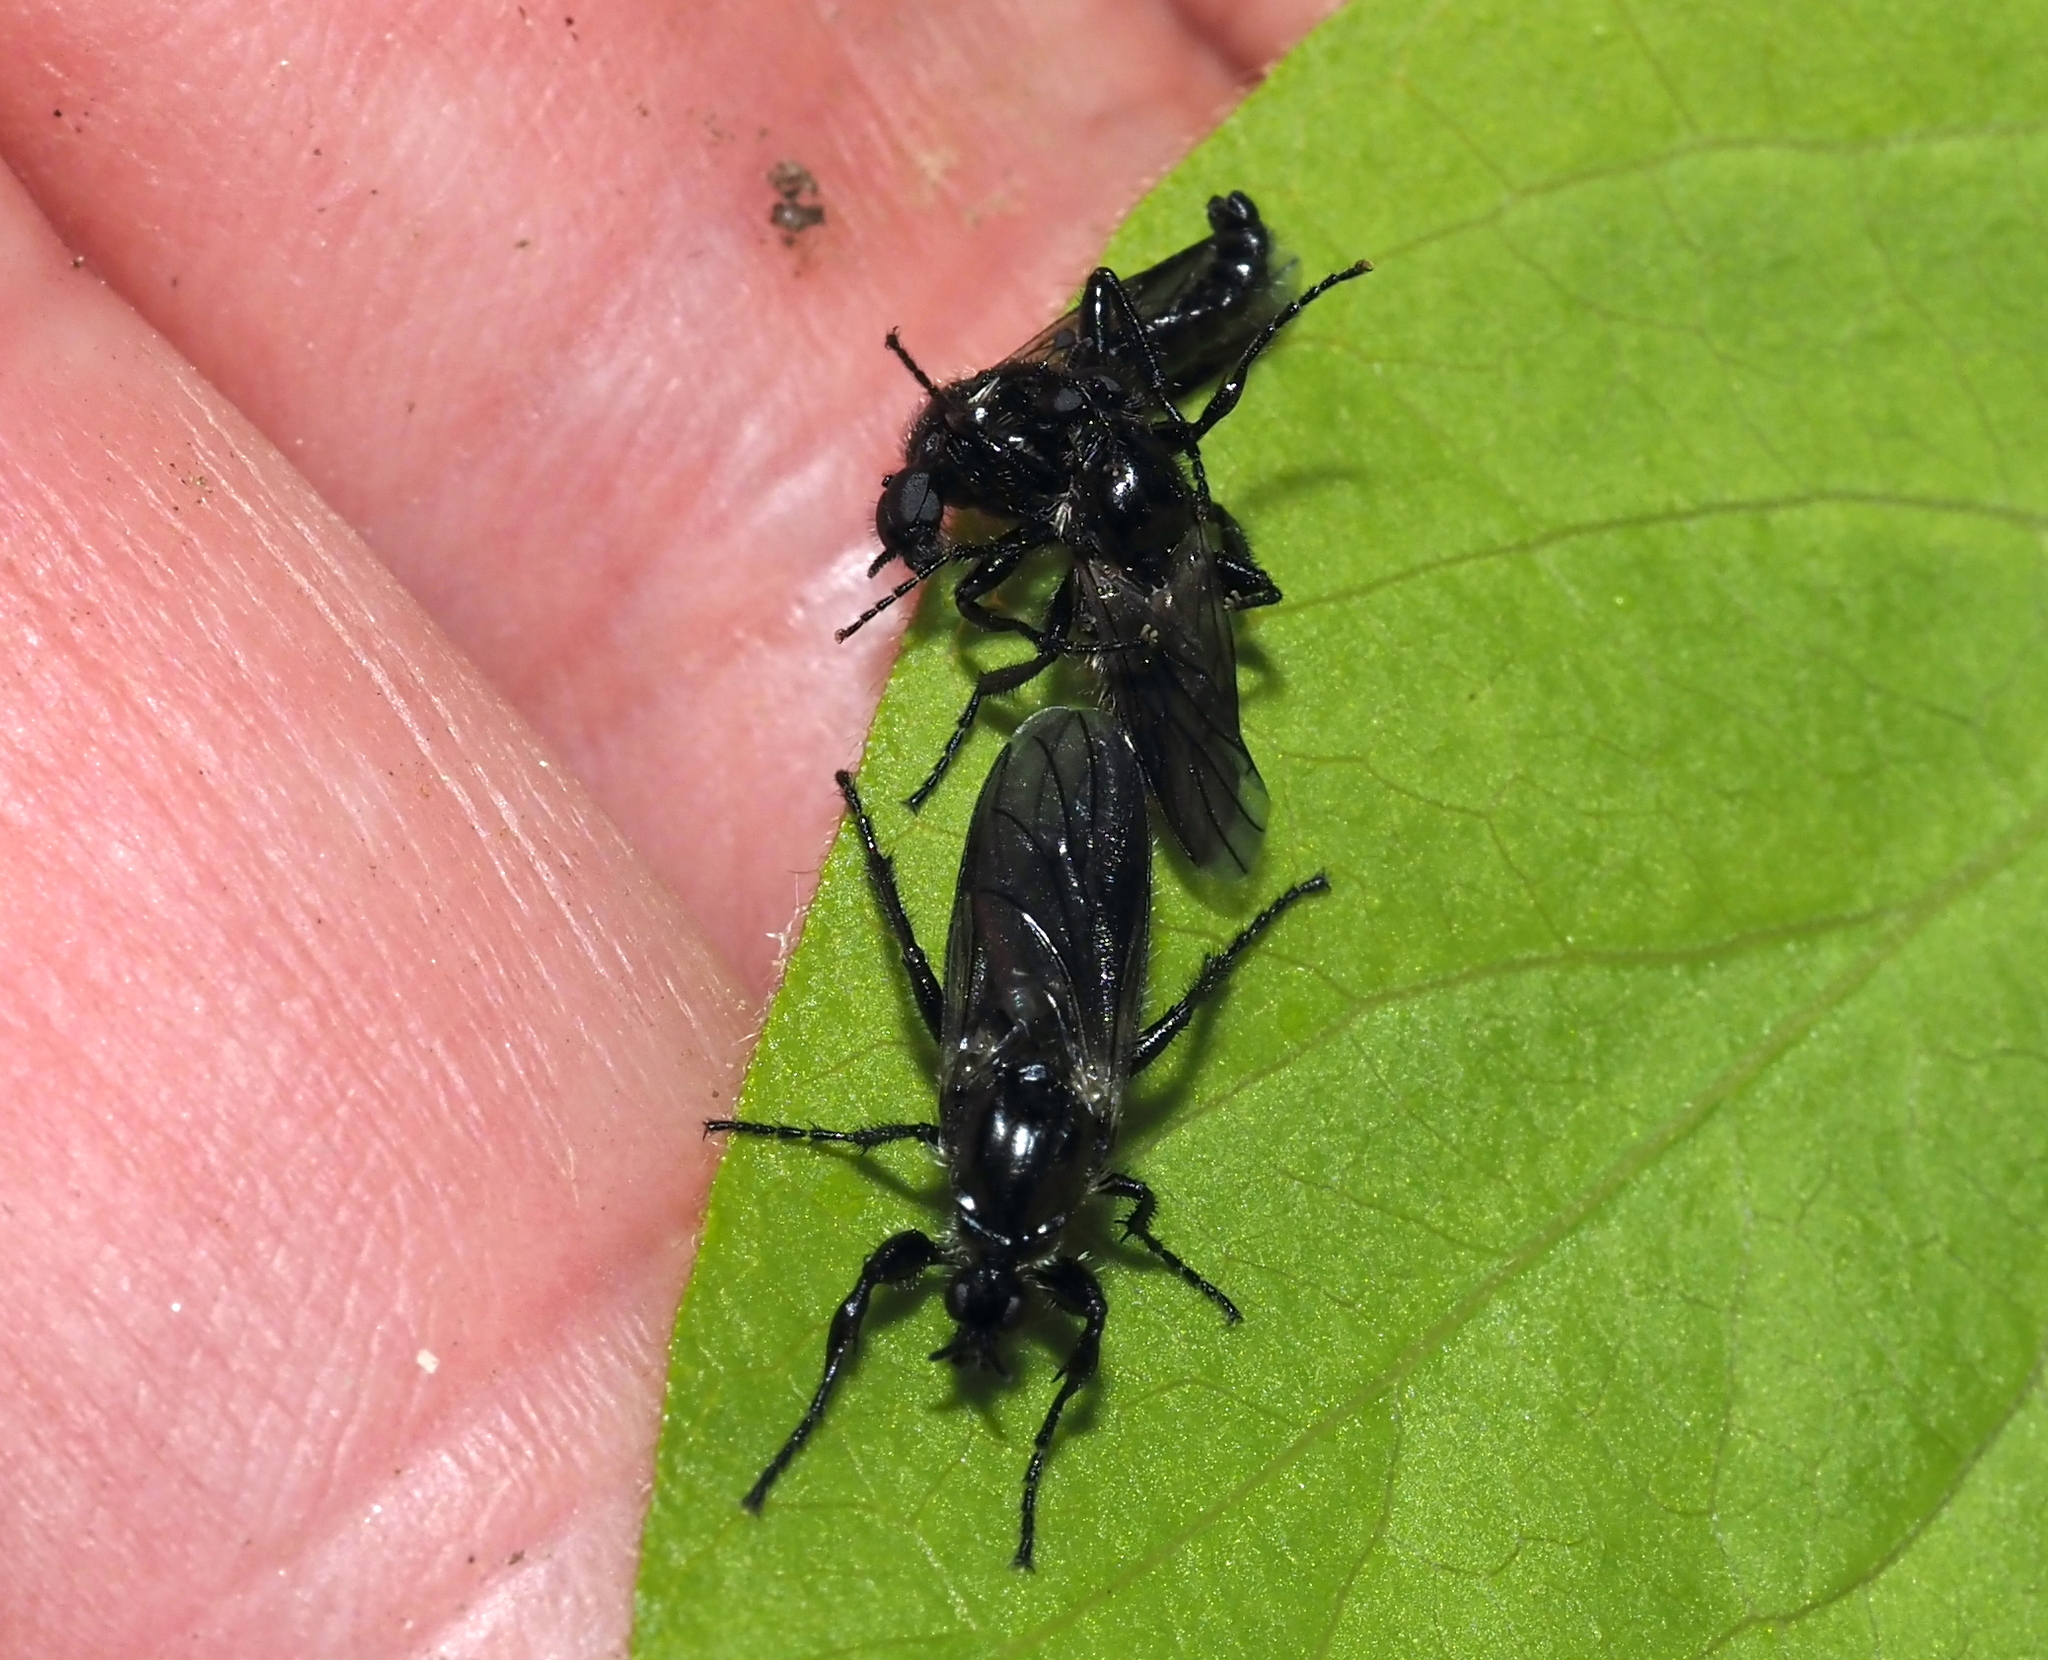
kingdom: Animalia
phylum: Arthropoda
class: Insecta
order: Diptera
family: Bibionidae
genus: Bibio
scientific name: Bibio albipennis
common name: White-winged march fly
